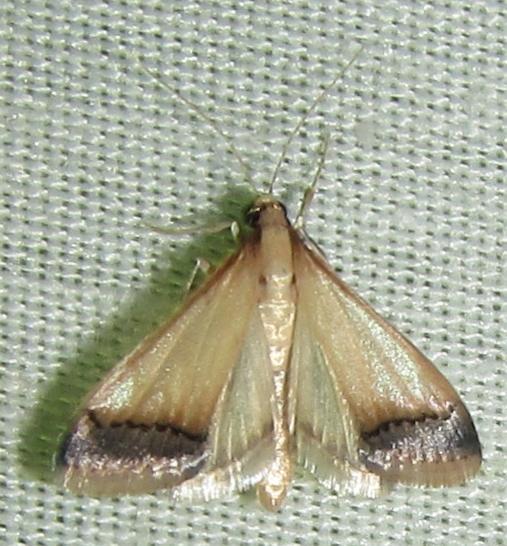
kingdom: Animalia
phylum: Arthropoda
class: Insecta
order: Lepidoptera
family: Crambidae
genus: Autocharis
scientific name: Autocharis rubricostalis
